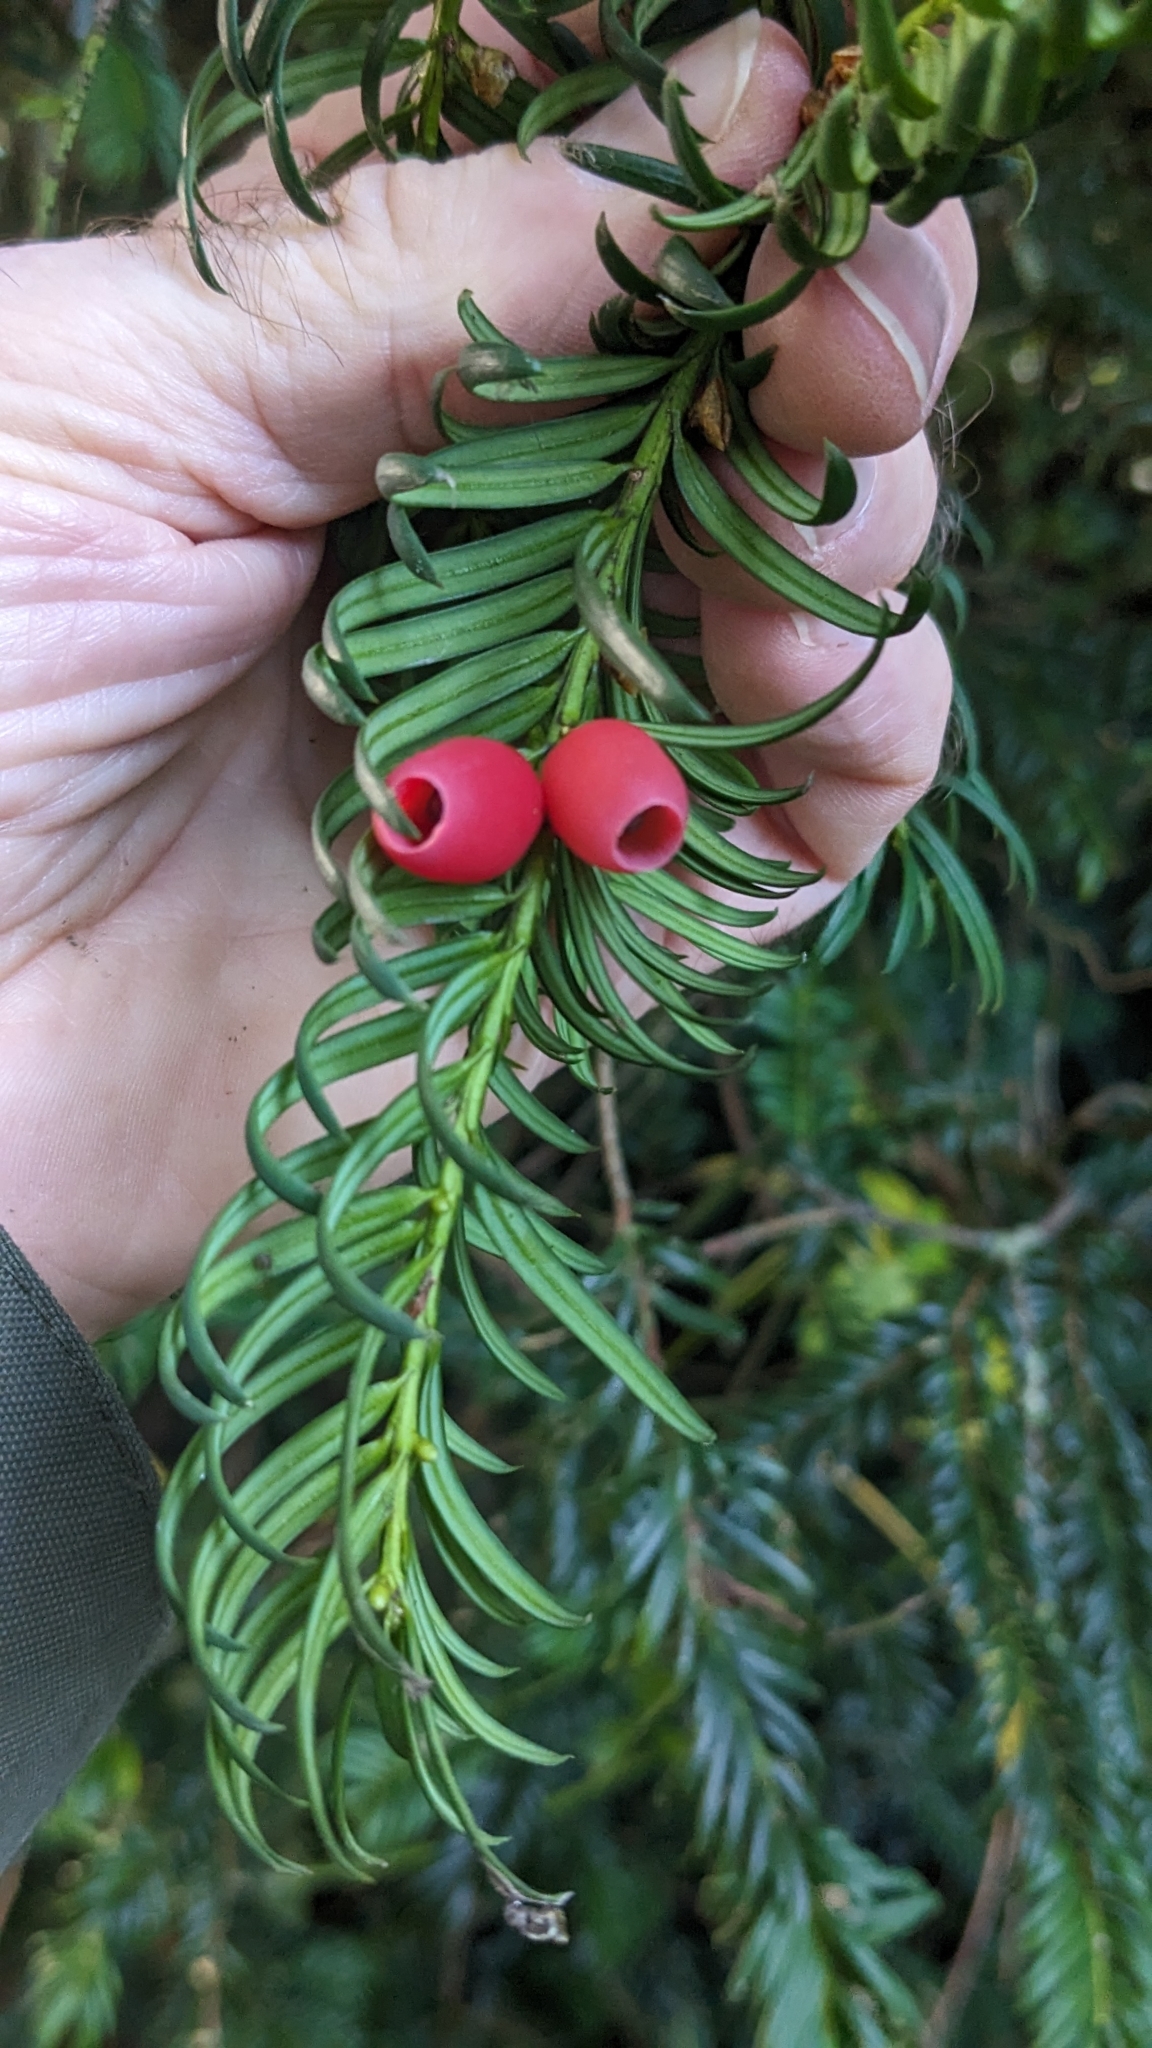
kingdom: Plantae
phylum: Tracheophyta
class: Pinopsida
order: Pinales
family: Taxaceae
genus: Taxus
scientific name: Taxus baccata
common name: Yew
